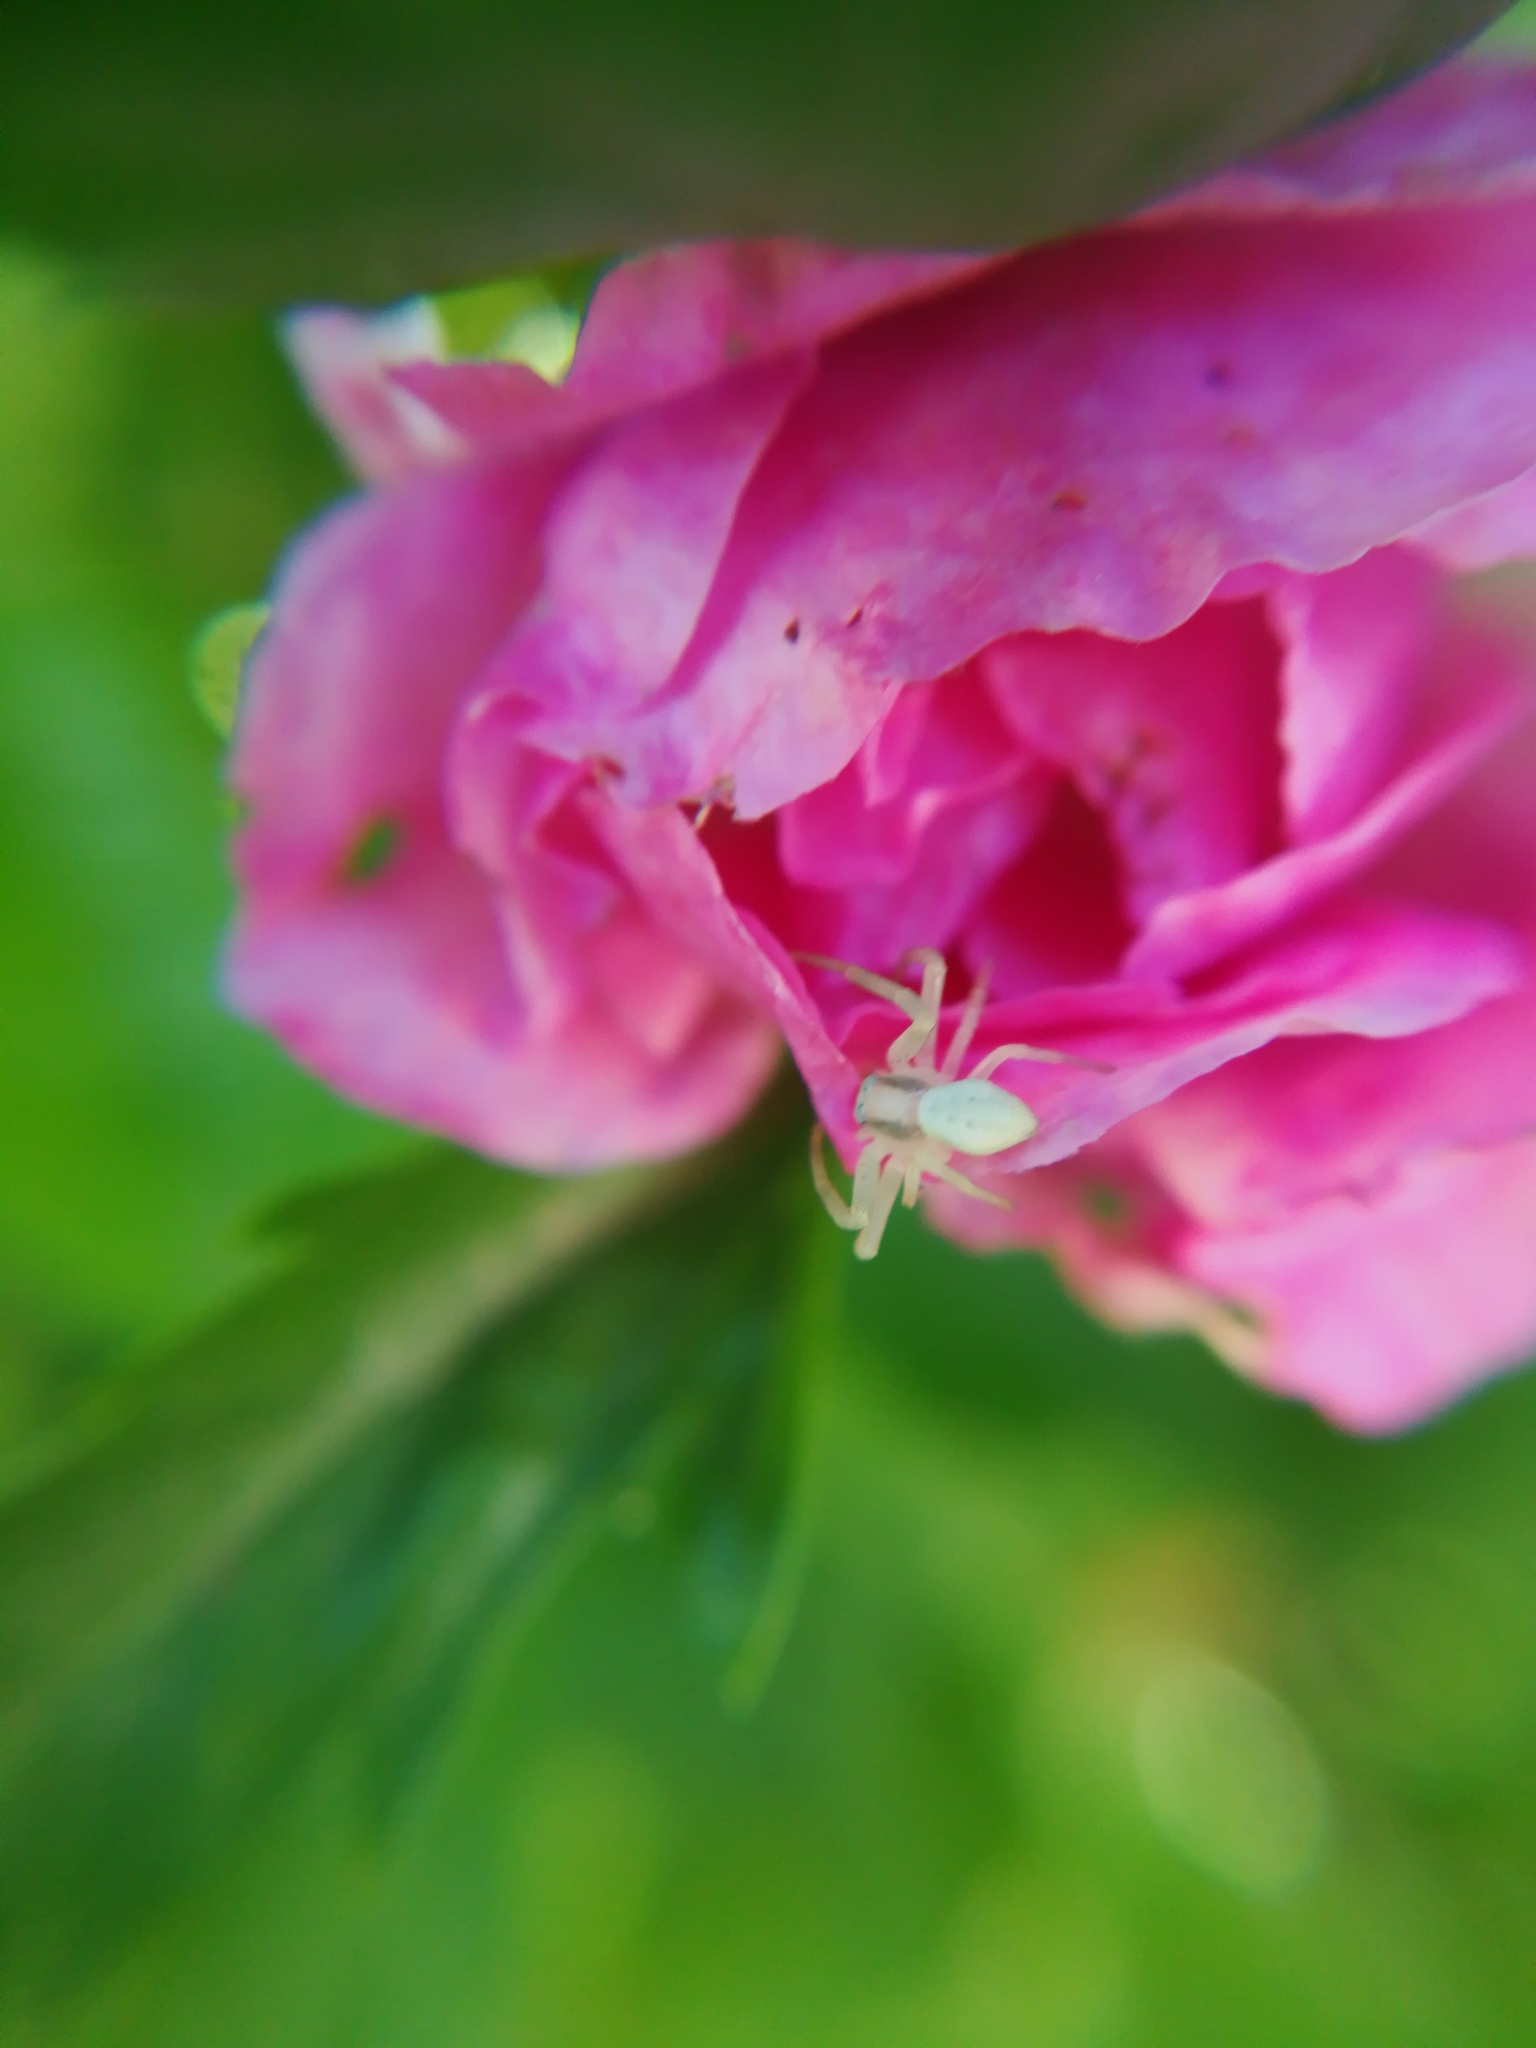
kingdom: Animalia
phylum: Arthropoda
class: Arachnida
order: Araneae
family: Thomisidae
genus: Misumena
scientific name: Misumena vatia
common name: Goldenrod crab spider
